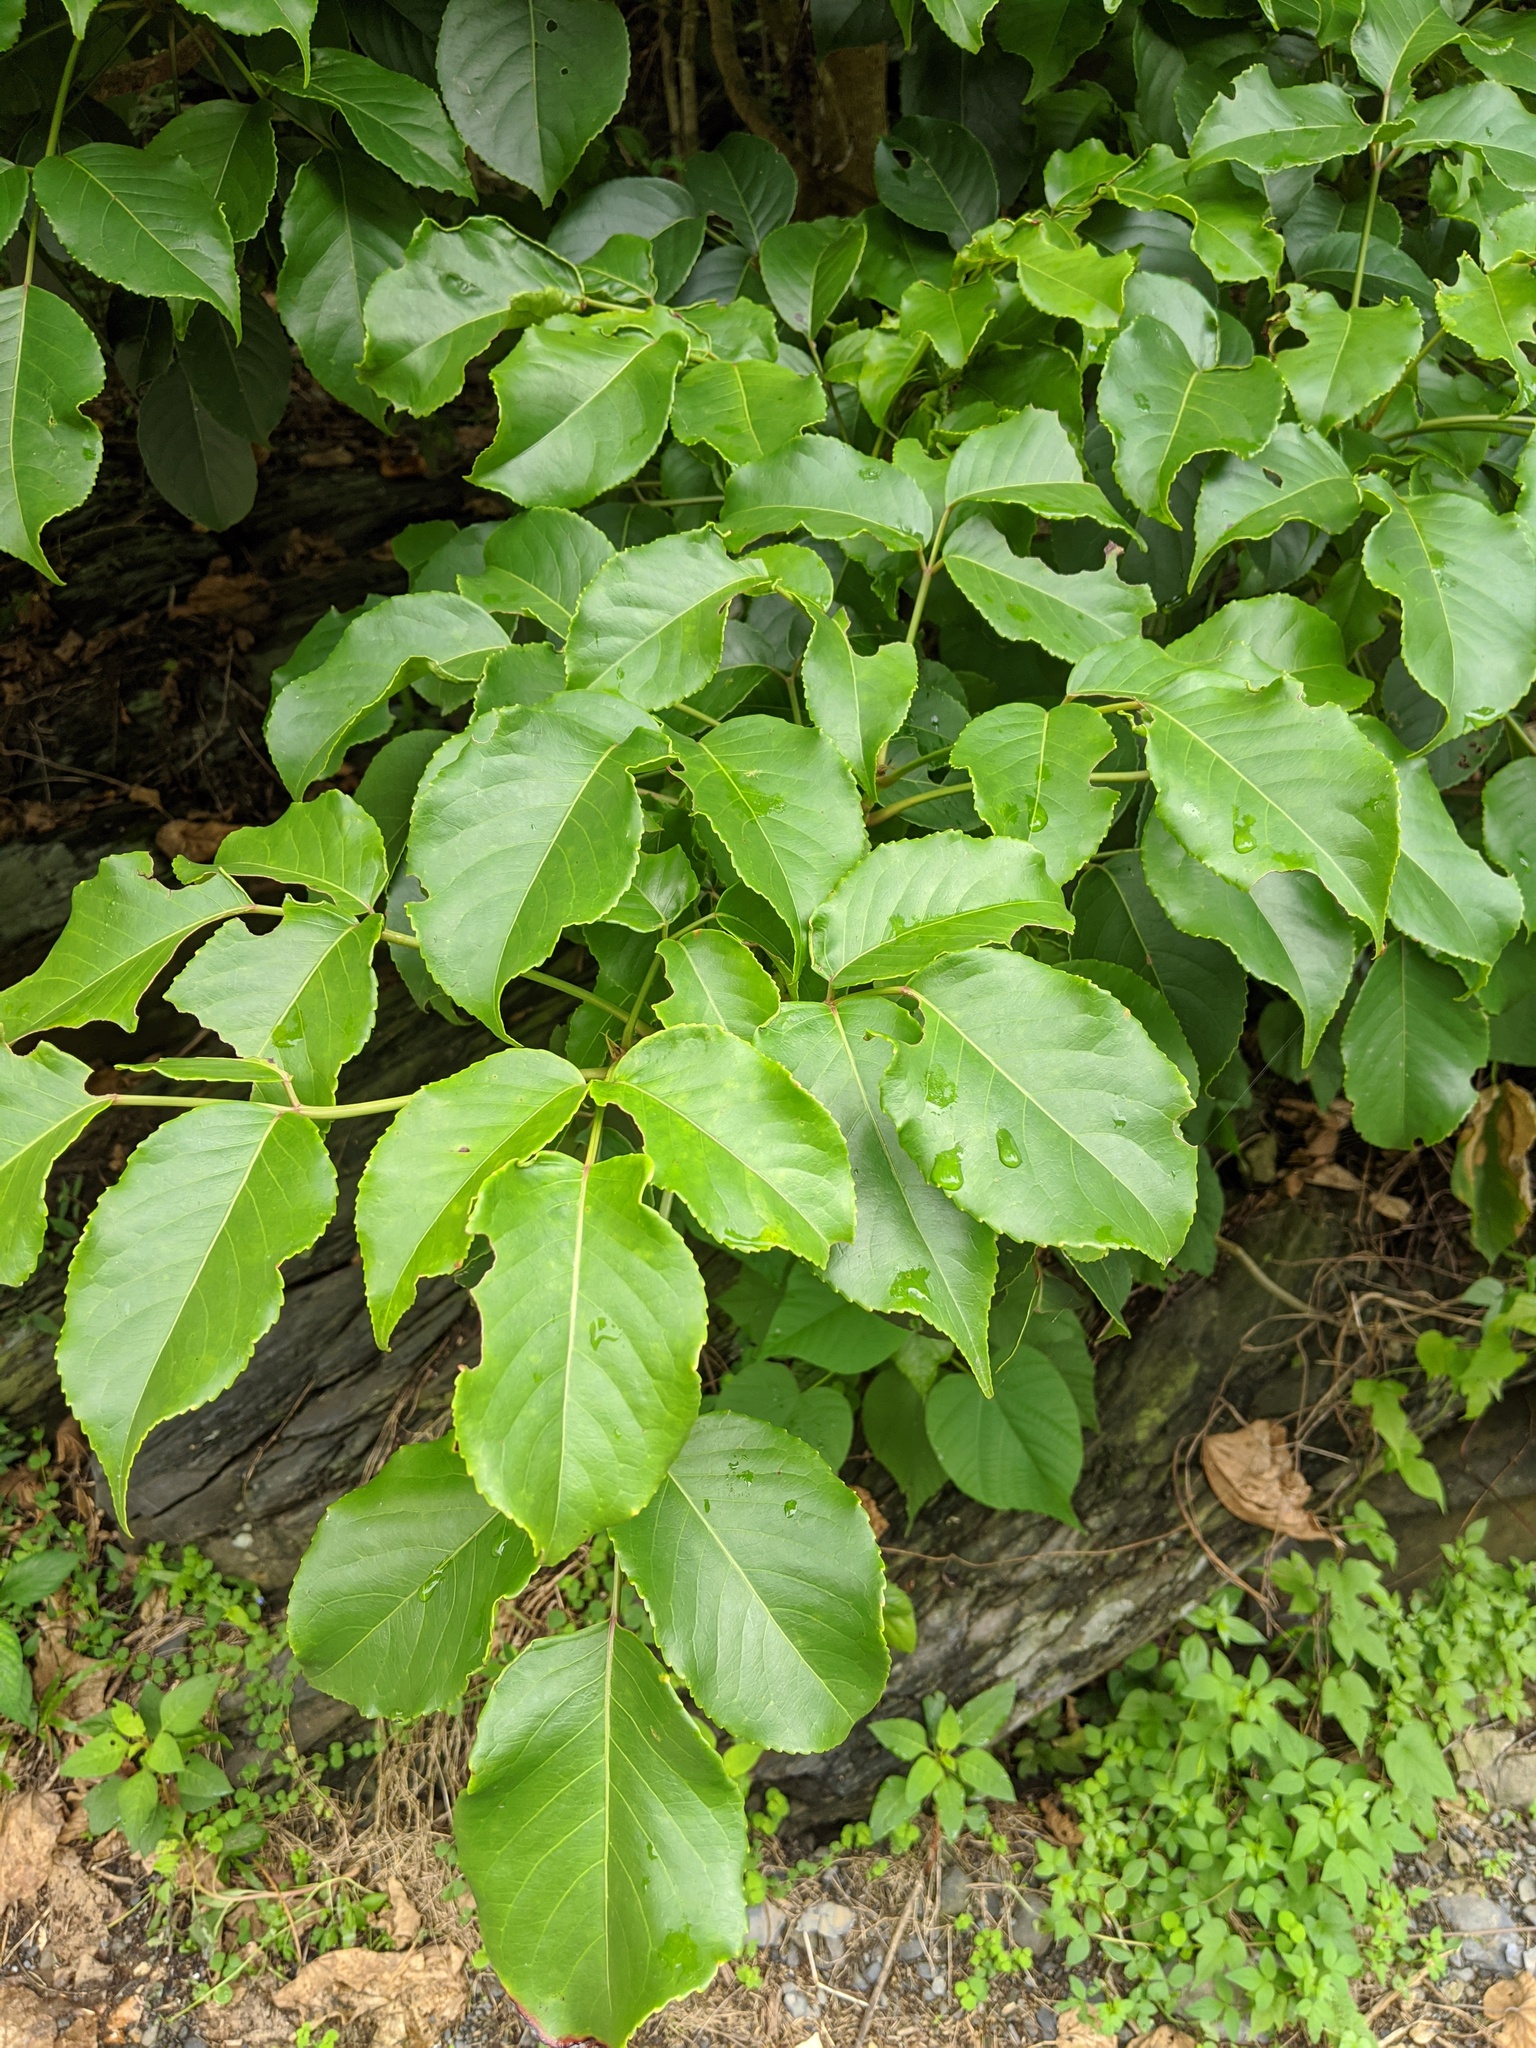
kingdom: Plantae
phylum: Tracheophyta
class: Magnoliopsida
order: Malpighiales
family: Phyllanthaceae
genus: Bischofia
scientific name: Bischofia javanica
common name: Javanese bishopwood
